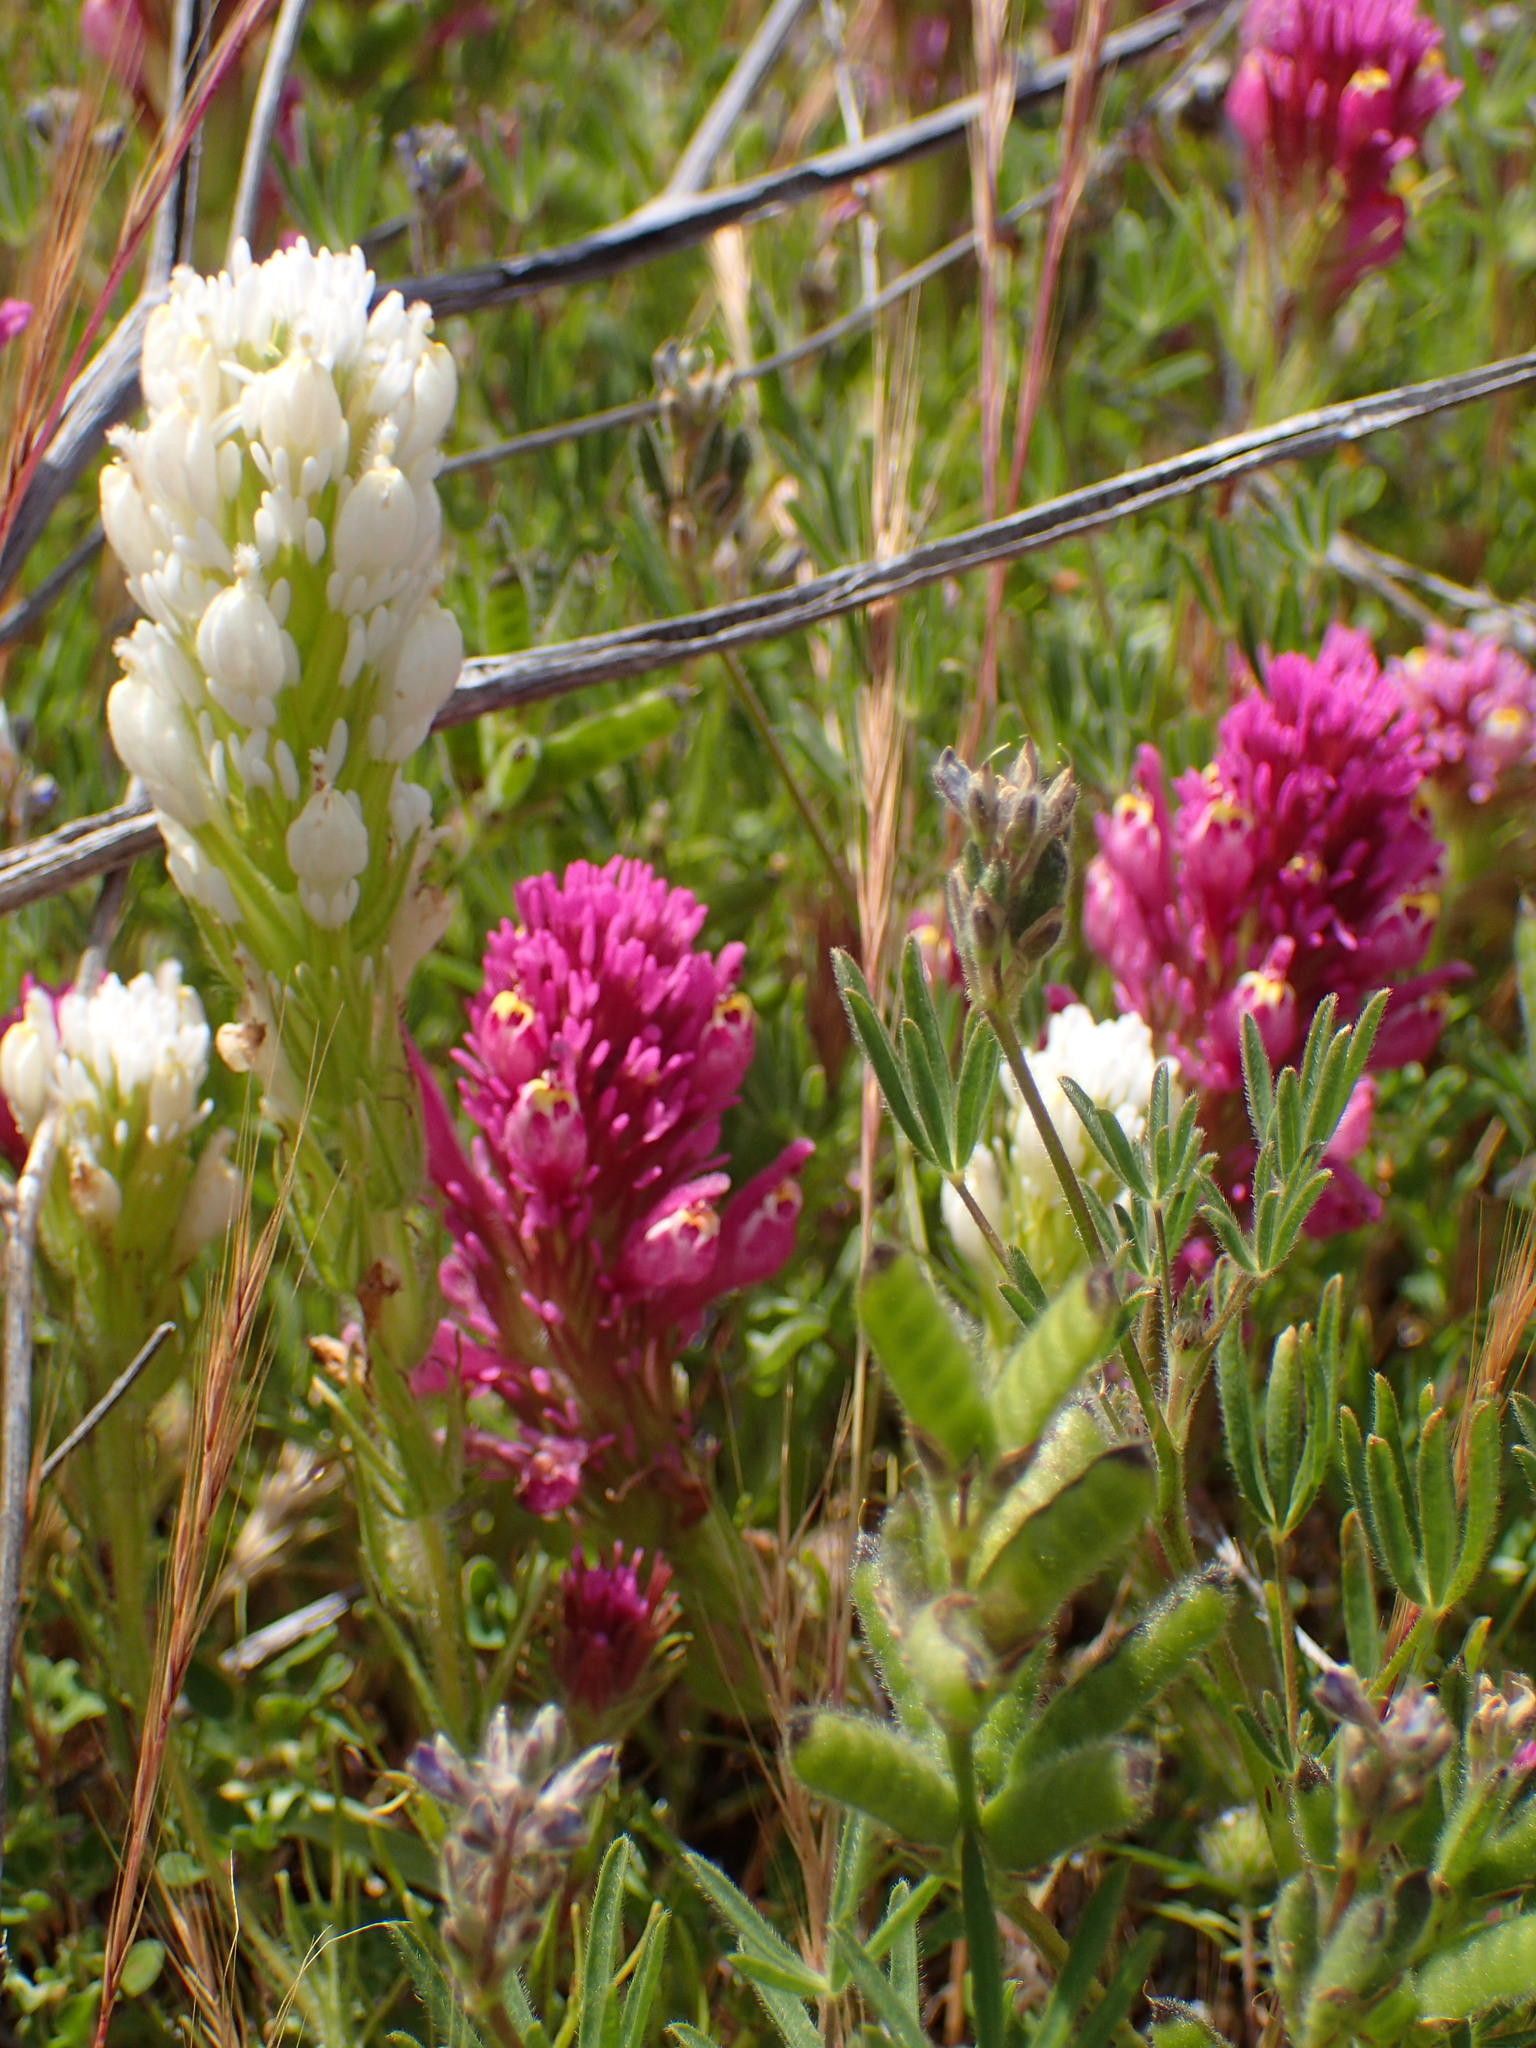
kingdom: Plantae
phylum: Tracheophyta
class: Magnoliopsida
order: Lamiales
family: Orobanchaceae
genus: Castilleja
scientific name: Castilleja exserta
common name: Purple owl-clover
